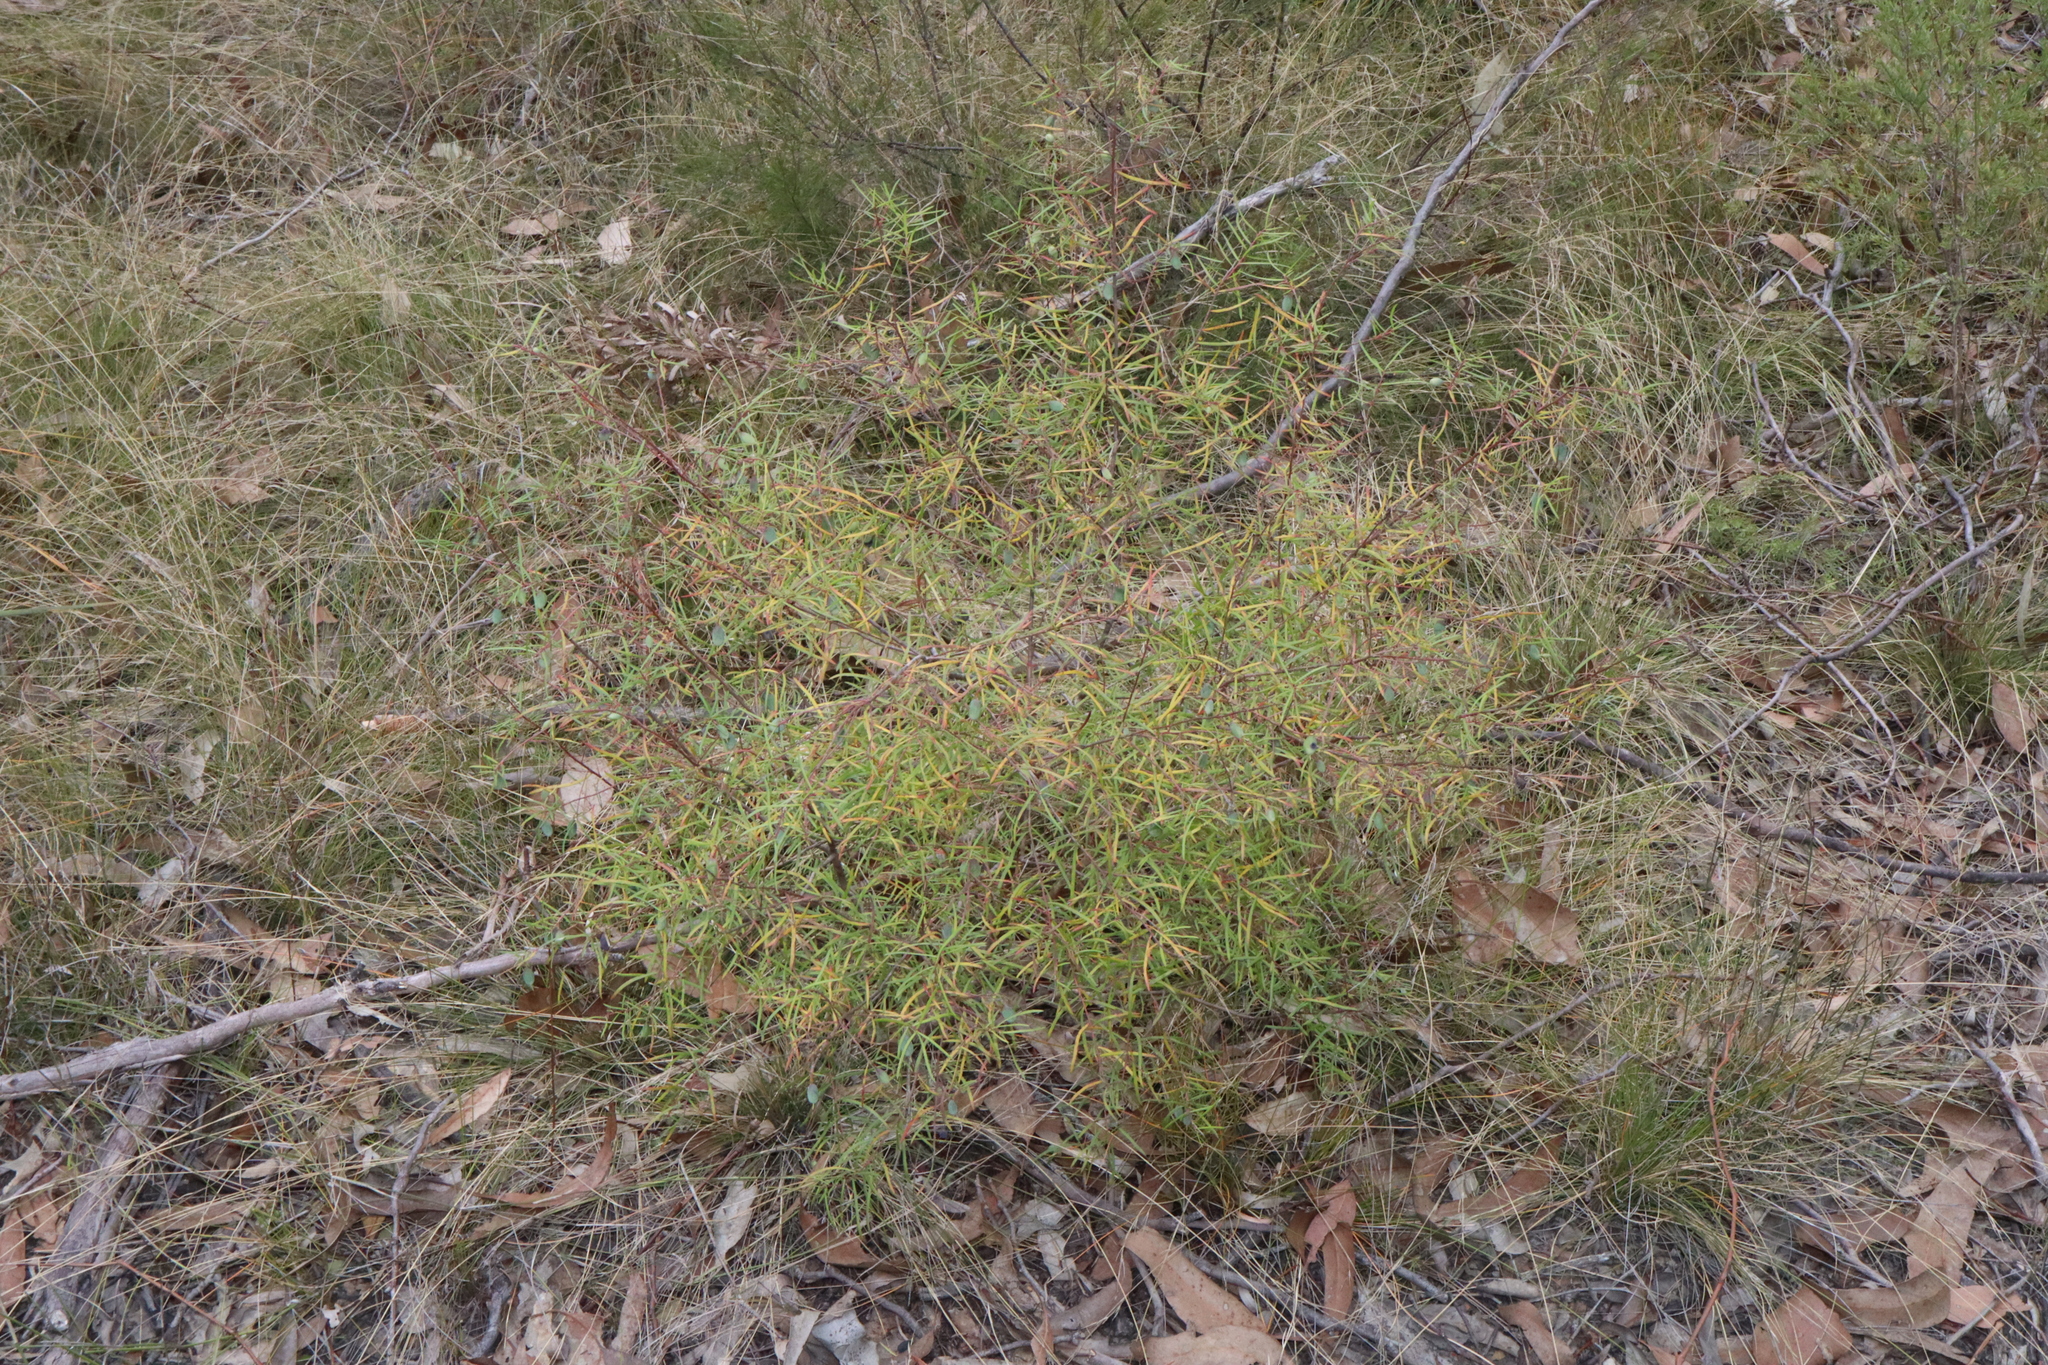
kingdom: Plantae
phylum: Tracheophyta
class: Magnoliopsida
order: Proteales
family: Proteaceae
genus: Persoonia
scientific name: Persoonia nutans
